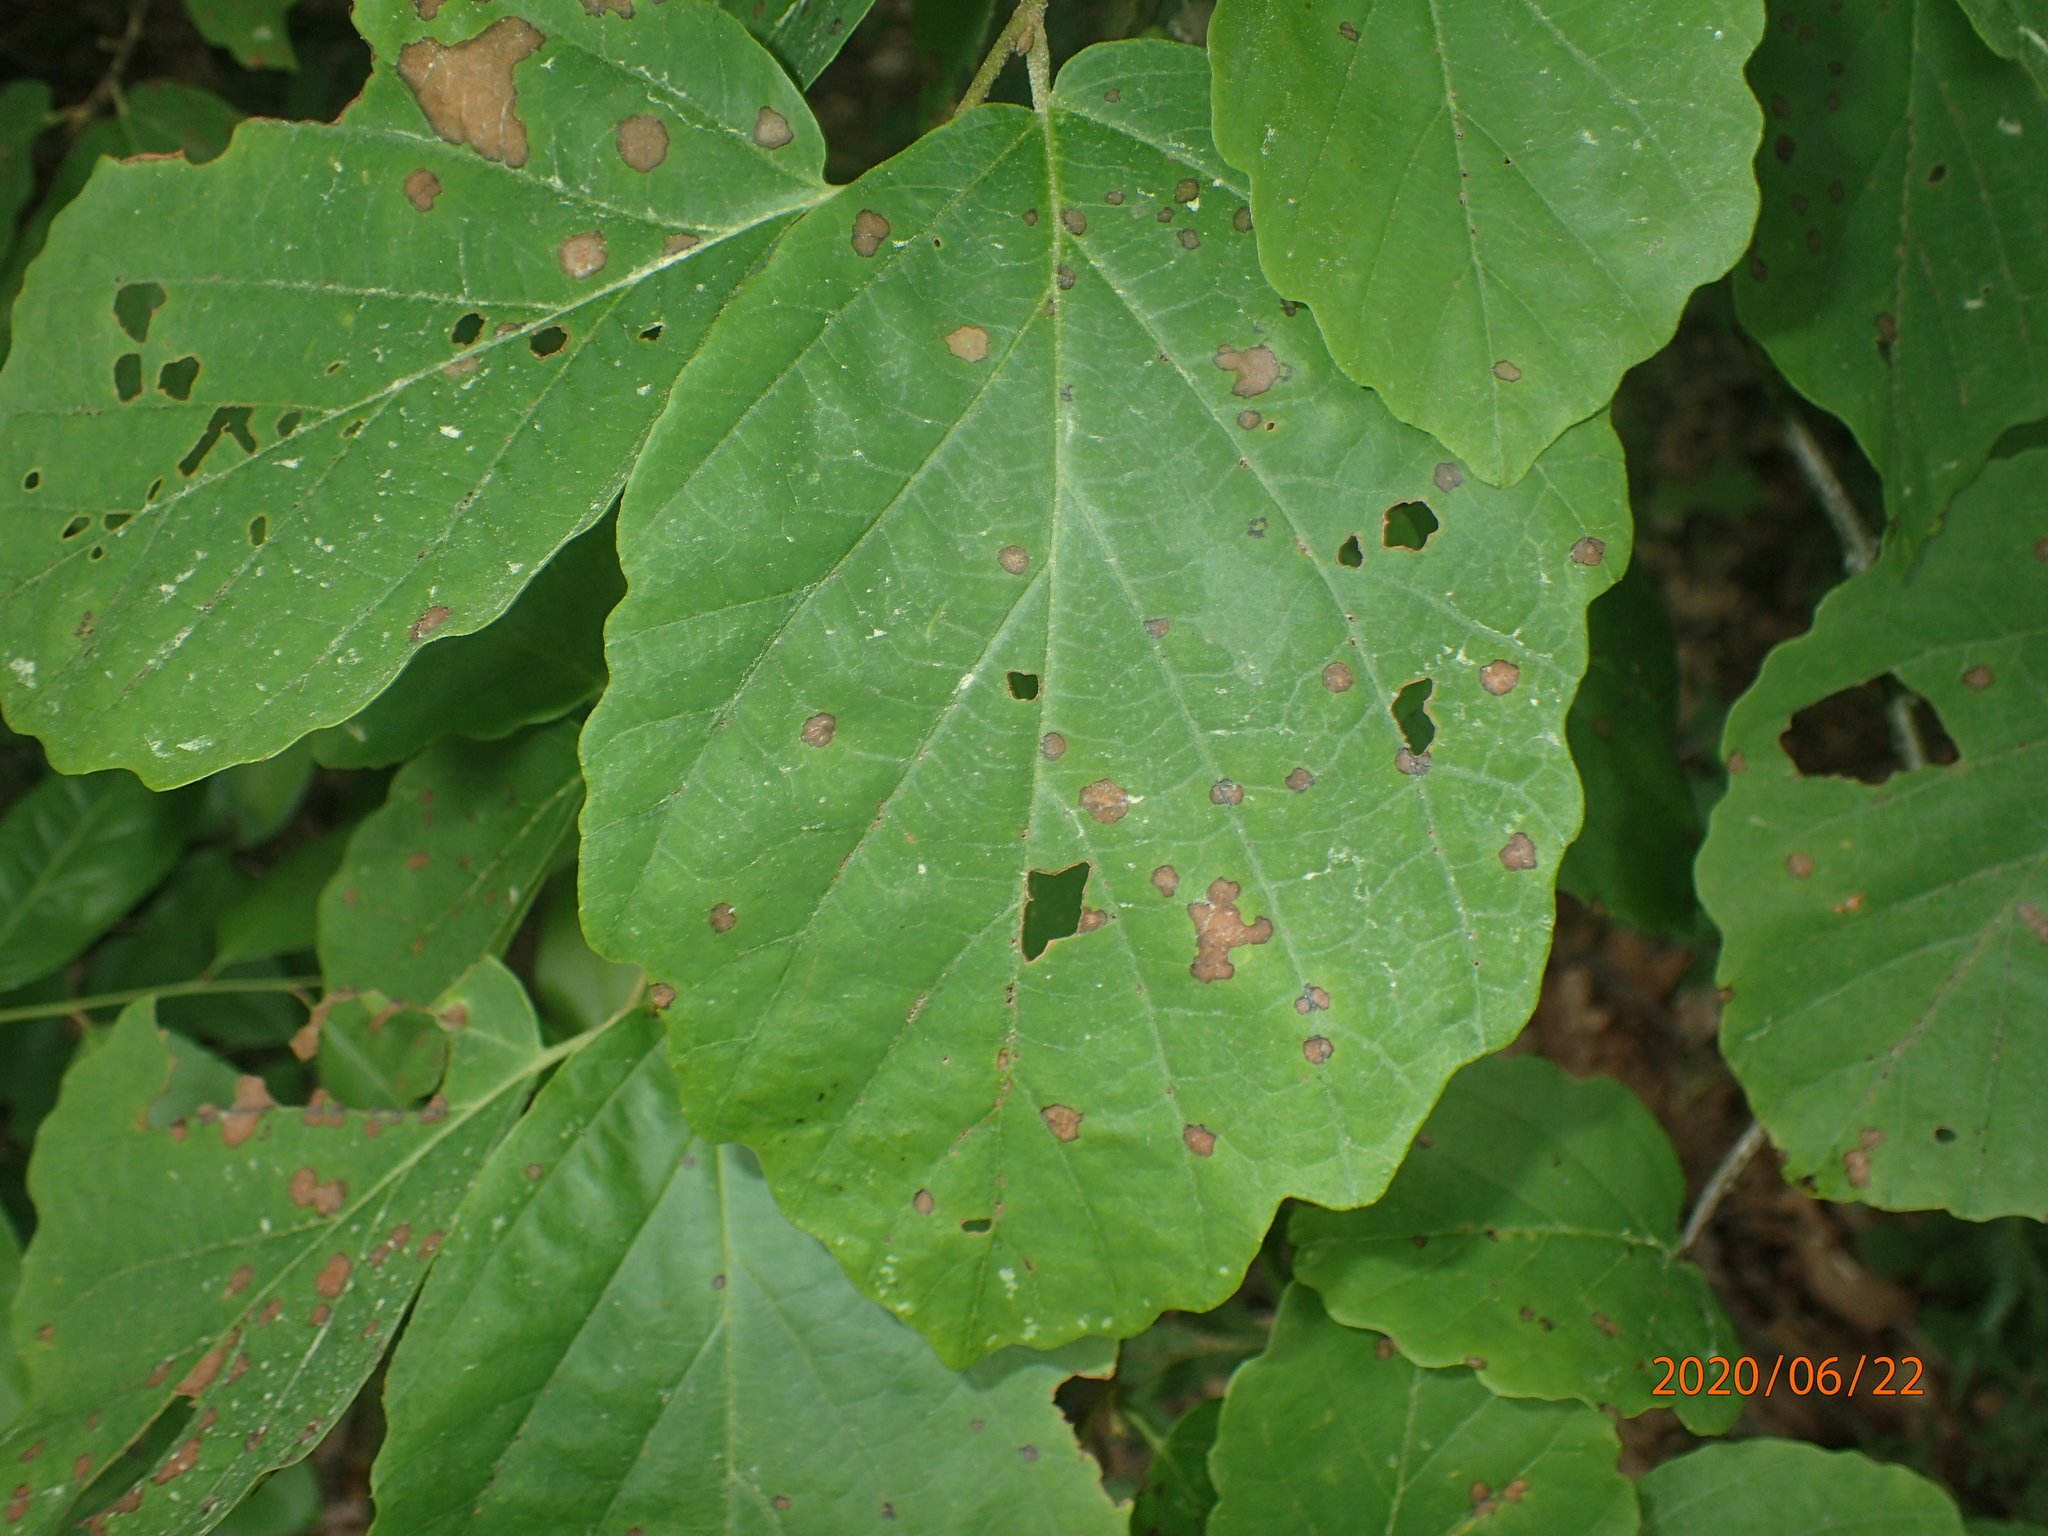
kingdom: Plantae
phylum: Tracheophyta
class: Magnoliopsida
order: Saxifragales
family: Hamamelidaceae
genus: Hamamelis
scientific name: Hamamelis virginiana
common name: Witch-hazel
